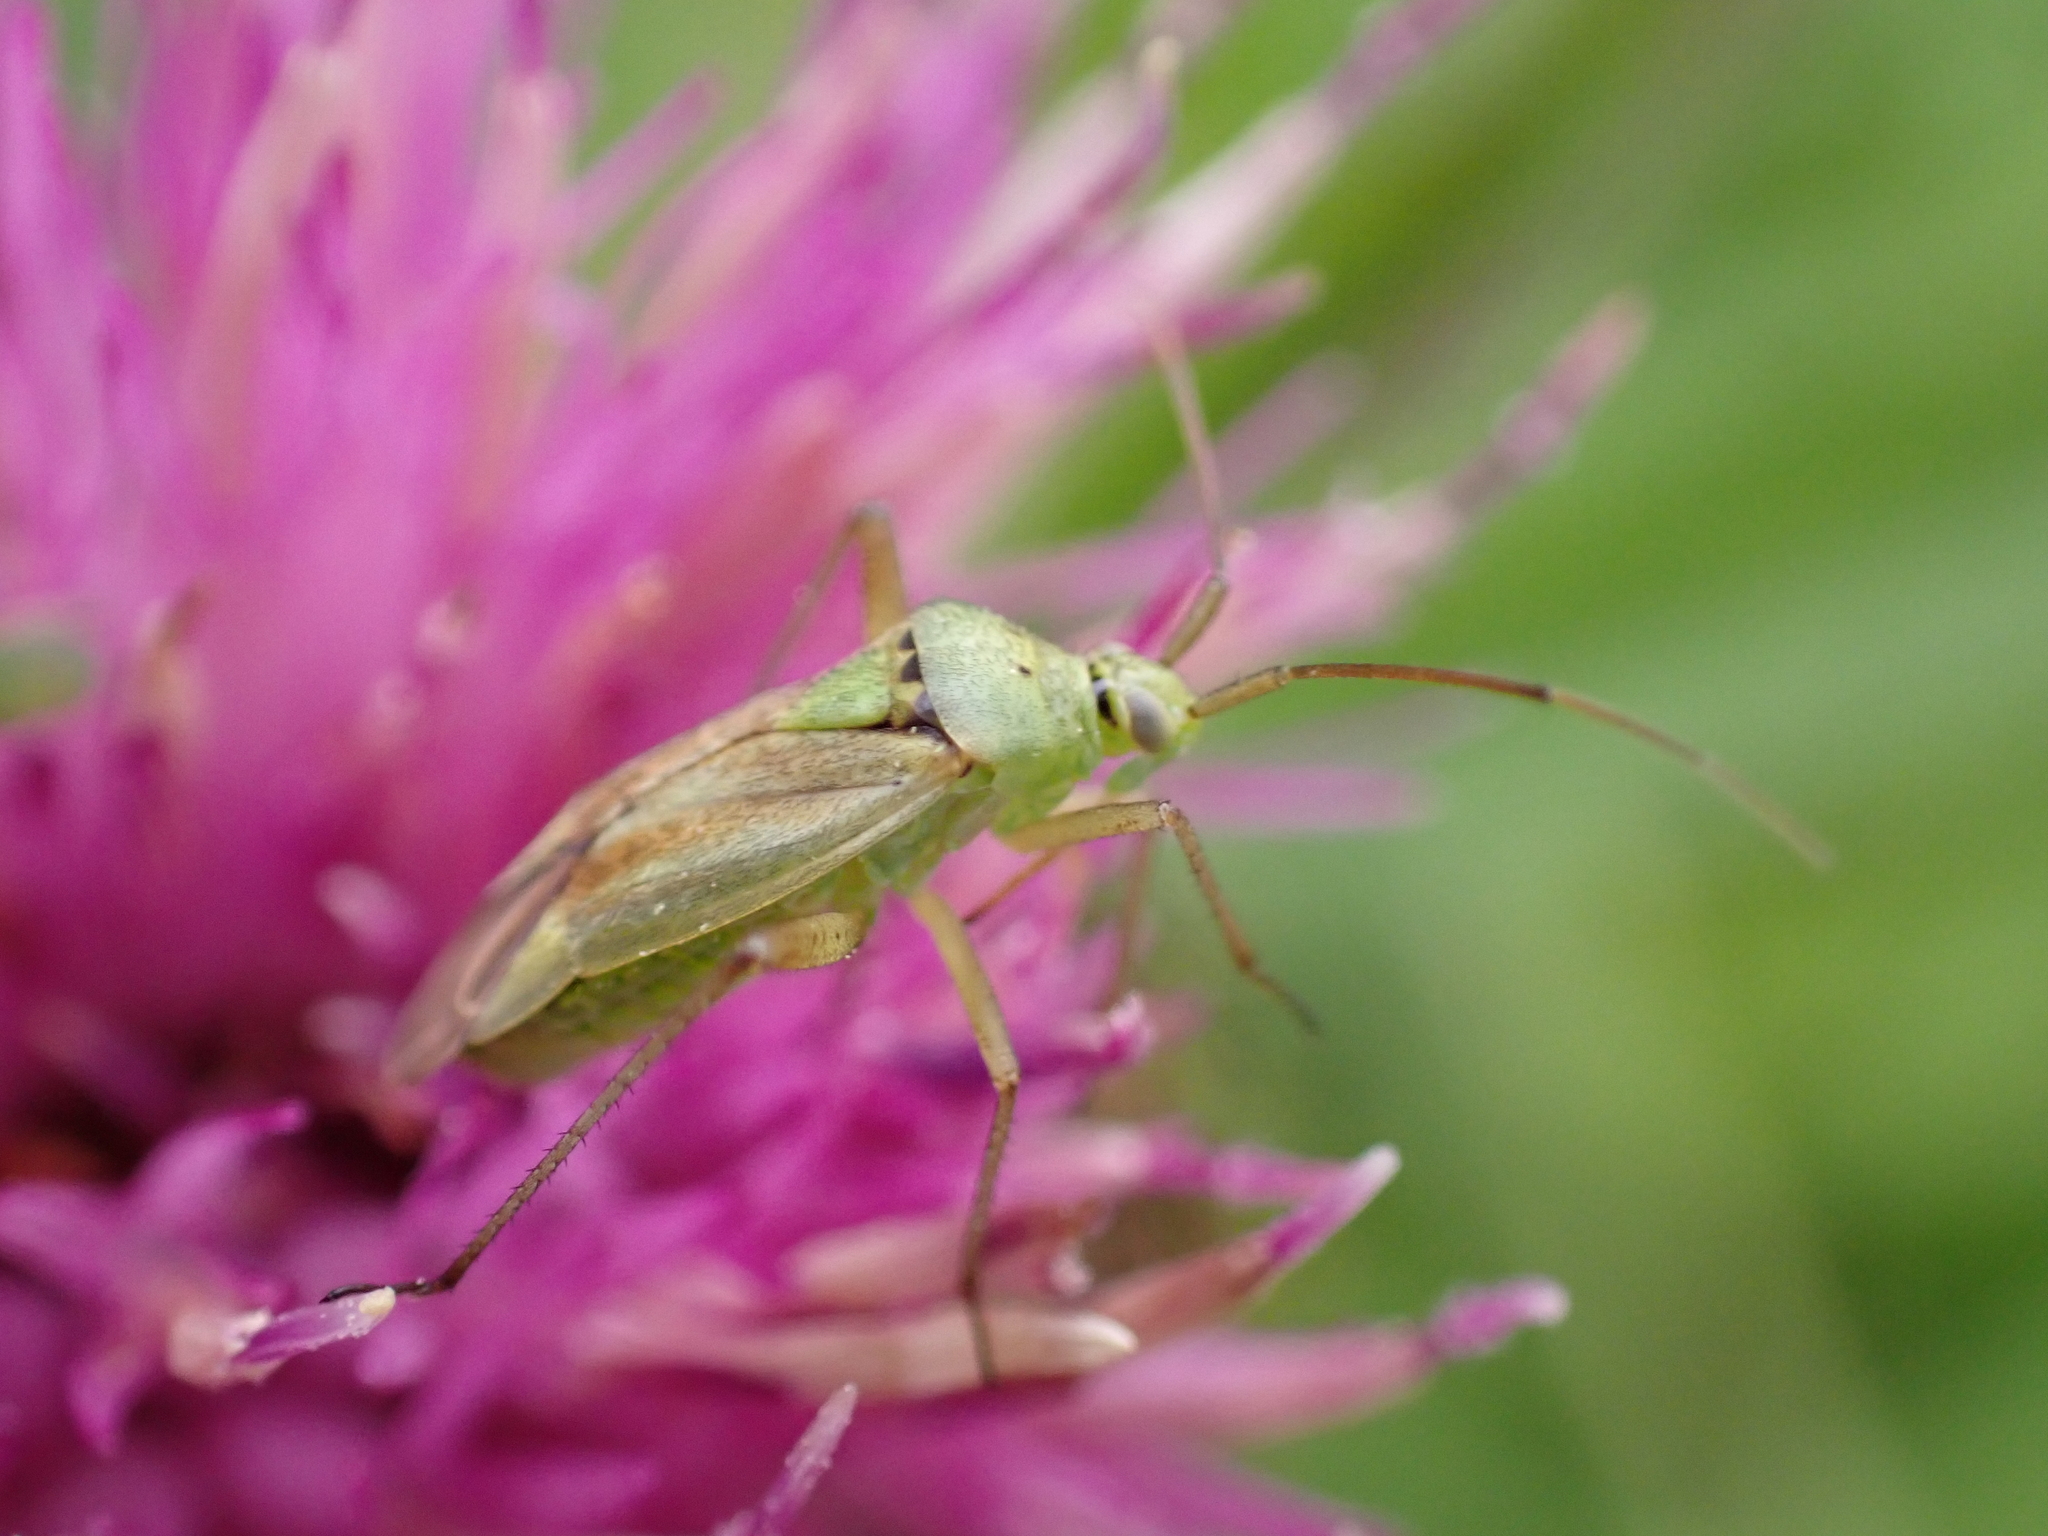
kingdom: Animalia
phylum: Arthropoda
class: Insecta
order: Hemiptera
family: Miridae
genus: Closterotomus
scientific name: Closterotomus norvegicus
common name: Plant bug
